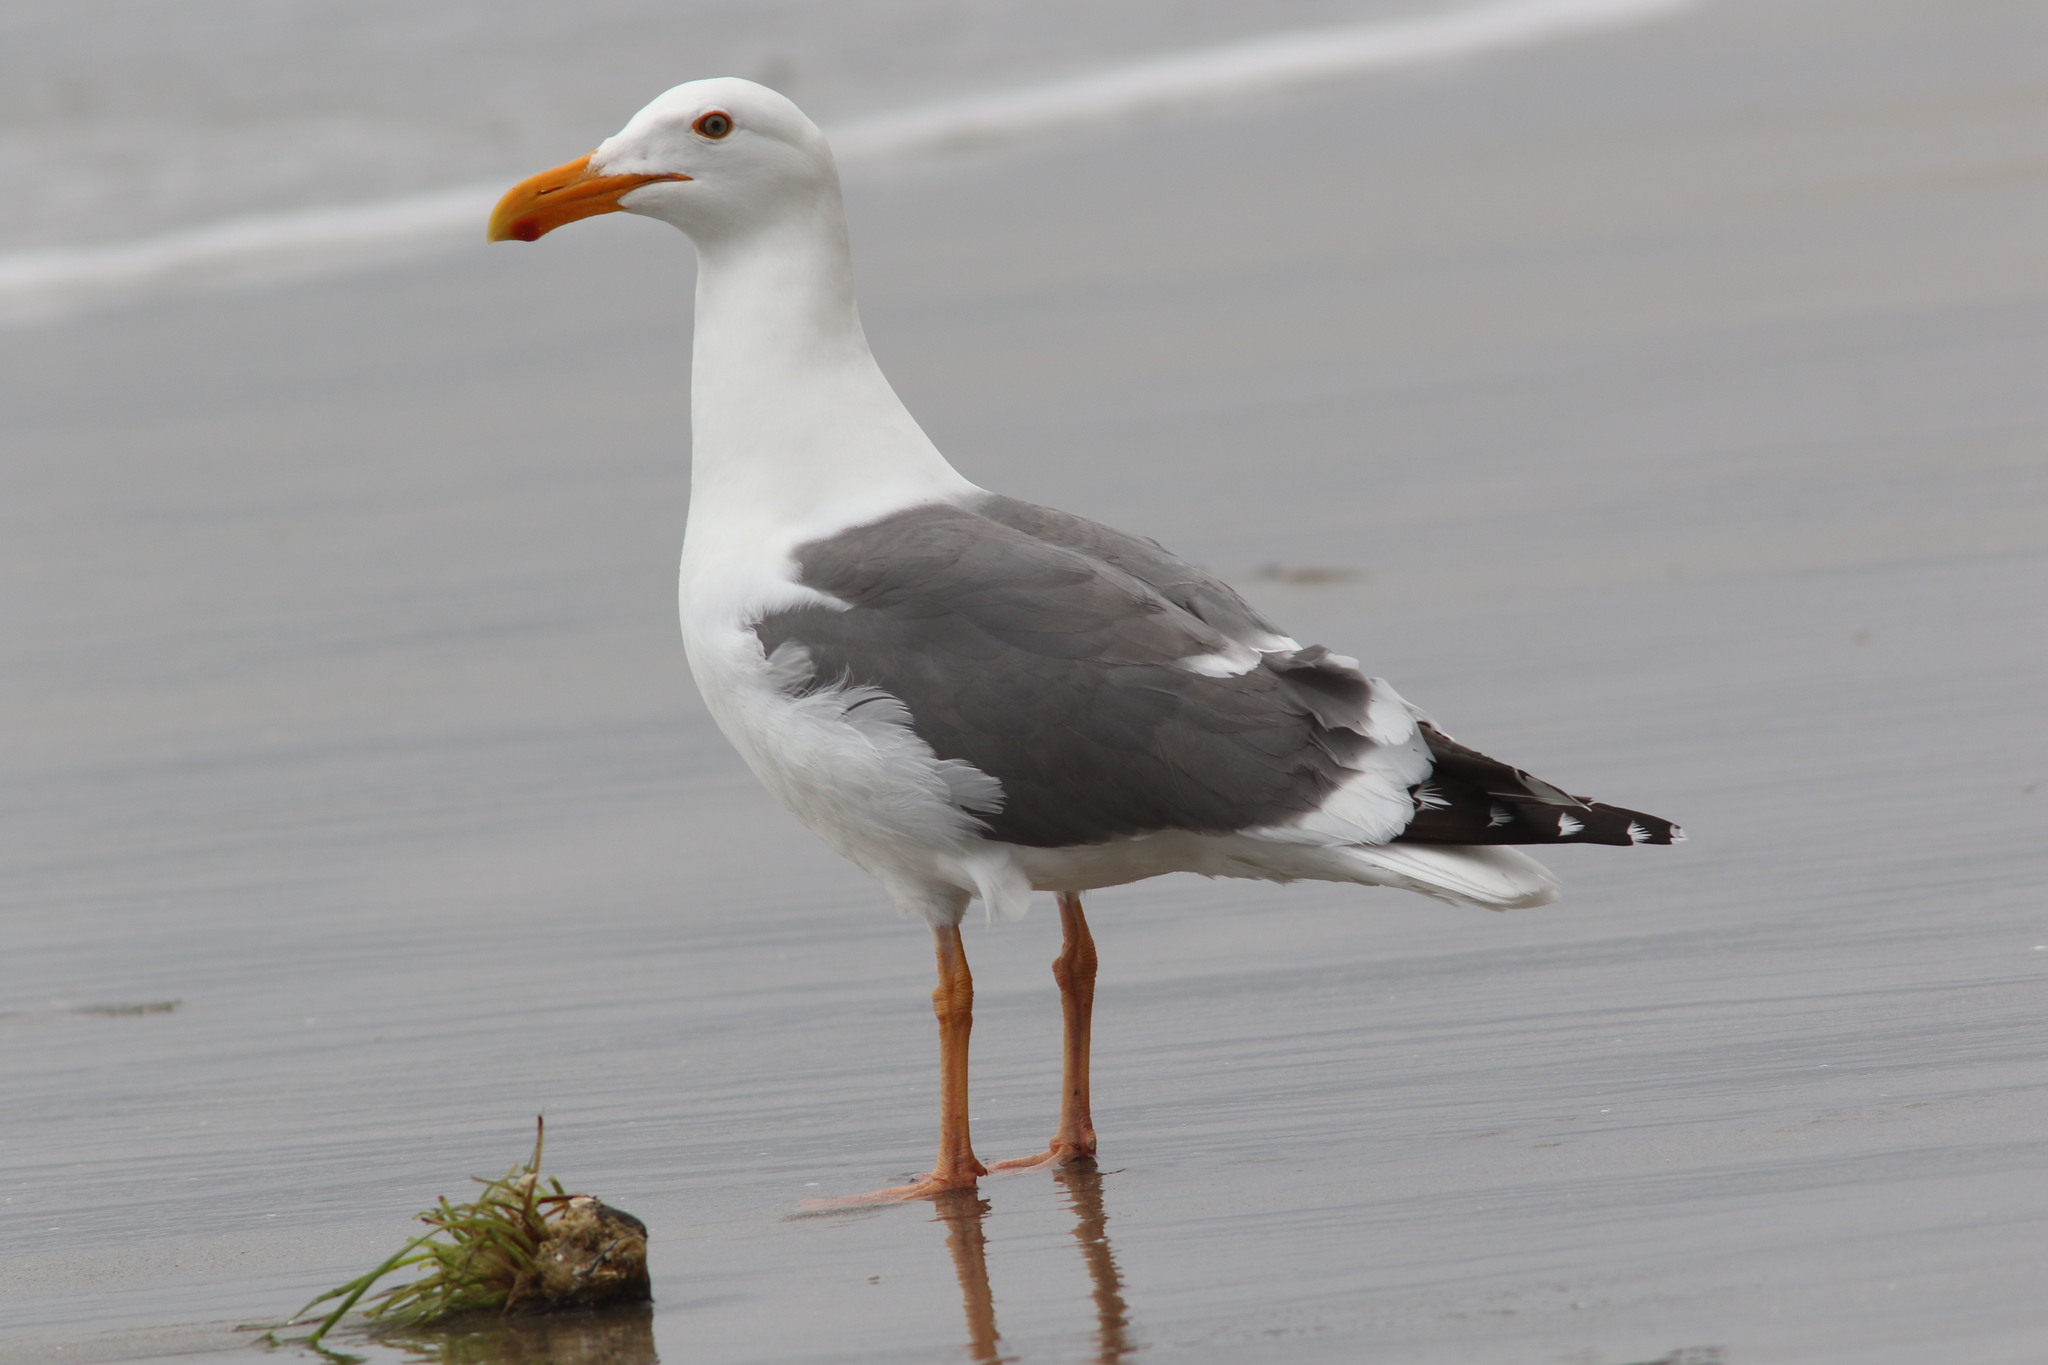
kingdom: Animalia
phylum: Chordata
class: Aves
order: Charadriiformes
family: Laridae
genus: Larus
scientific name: Larus occidentalis
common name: Western gull
